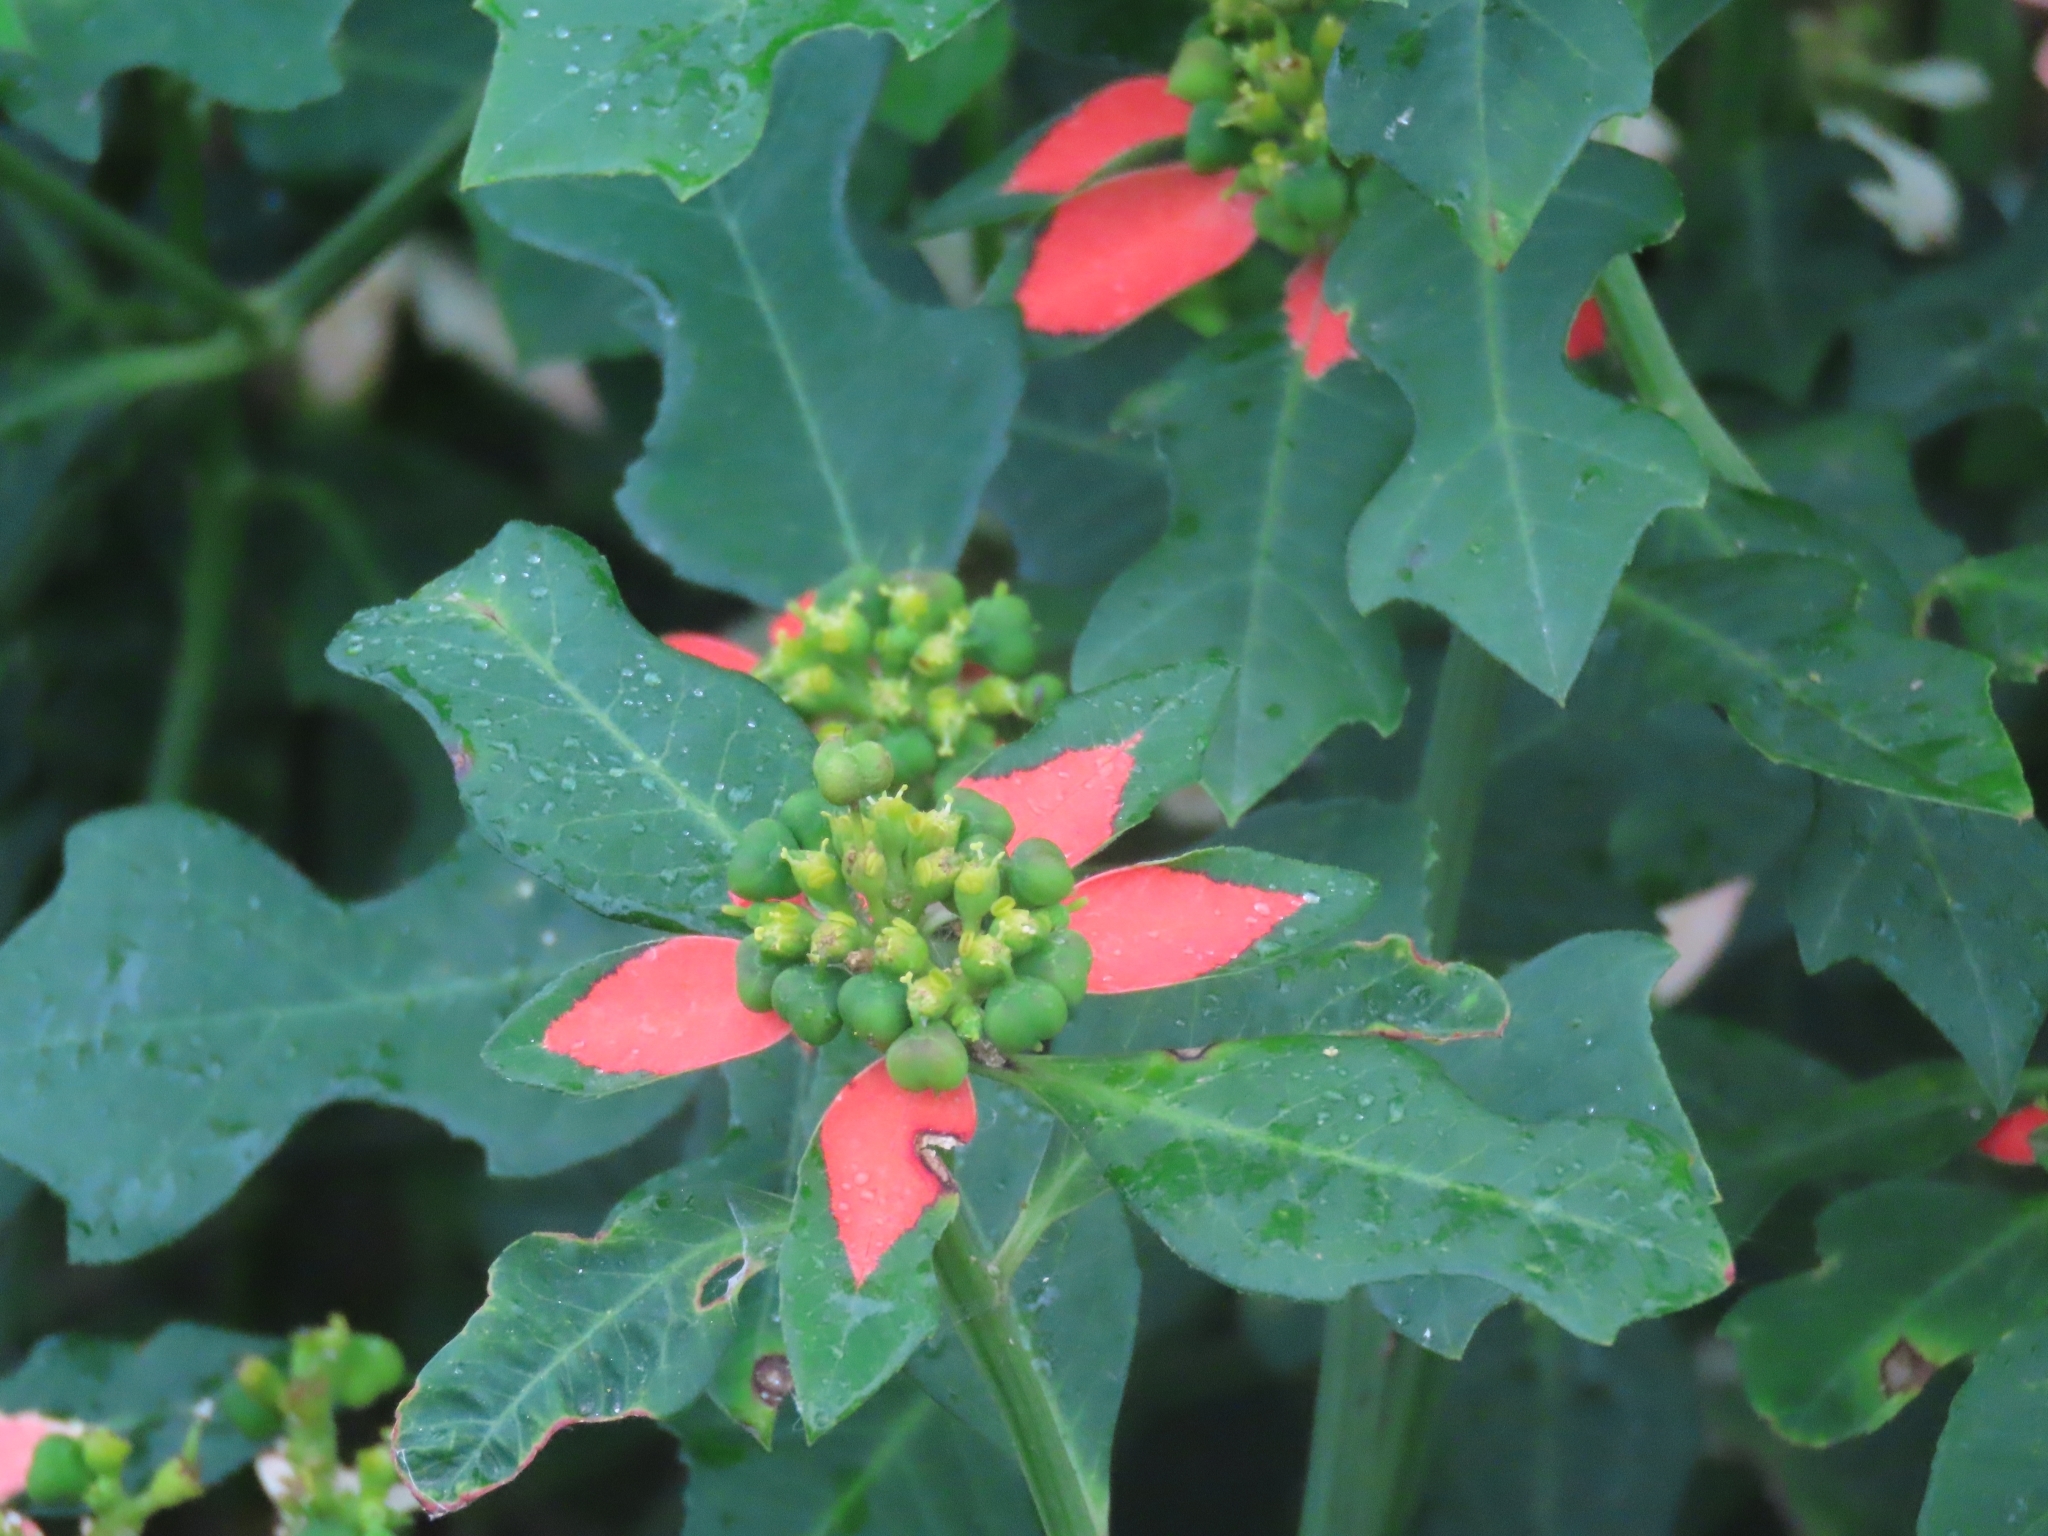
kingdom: Plantae
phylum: Tracheophyta
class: Magnoliopsida
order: Malpighiales
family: Euphorbiaceae
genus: Euphorbia
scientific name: Euphorbia heterophylla
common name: Mexican fireplant
